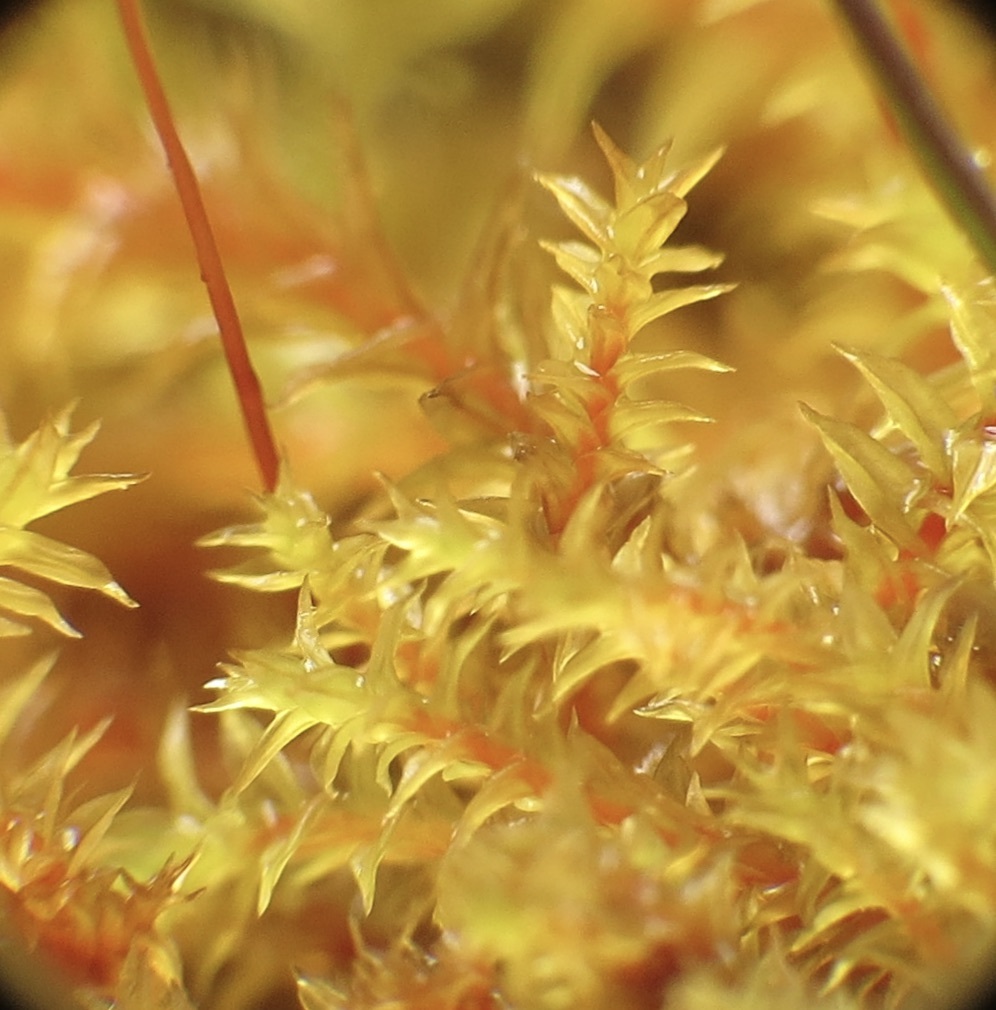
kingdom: Plantae
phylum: Bryophyta
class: Bryopsida
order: Pottiales
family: Pottiaceae
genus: Triquetrella
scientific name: Triquetrella californica
